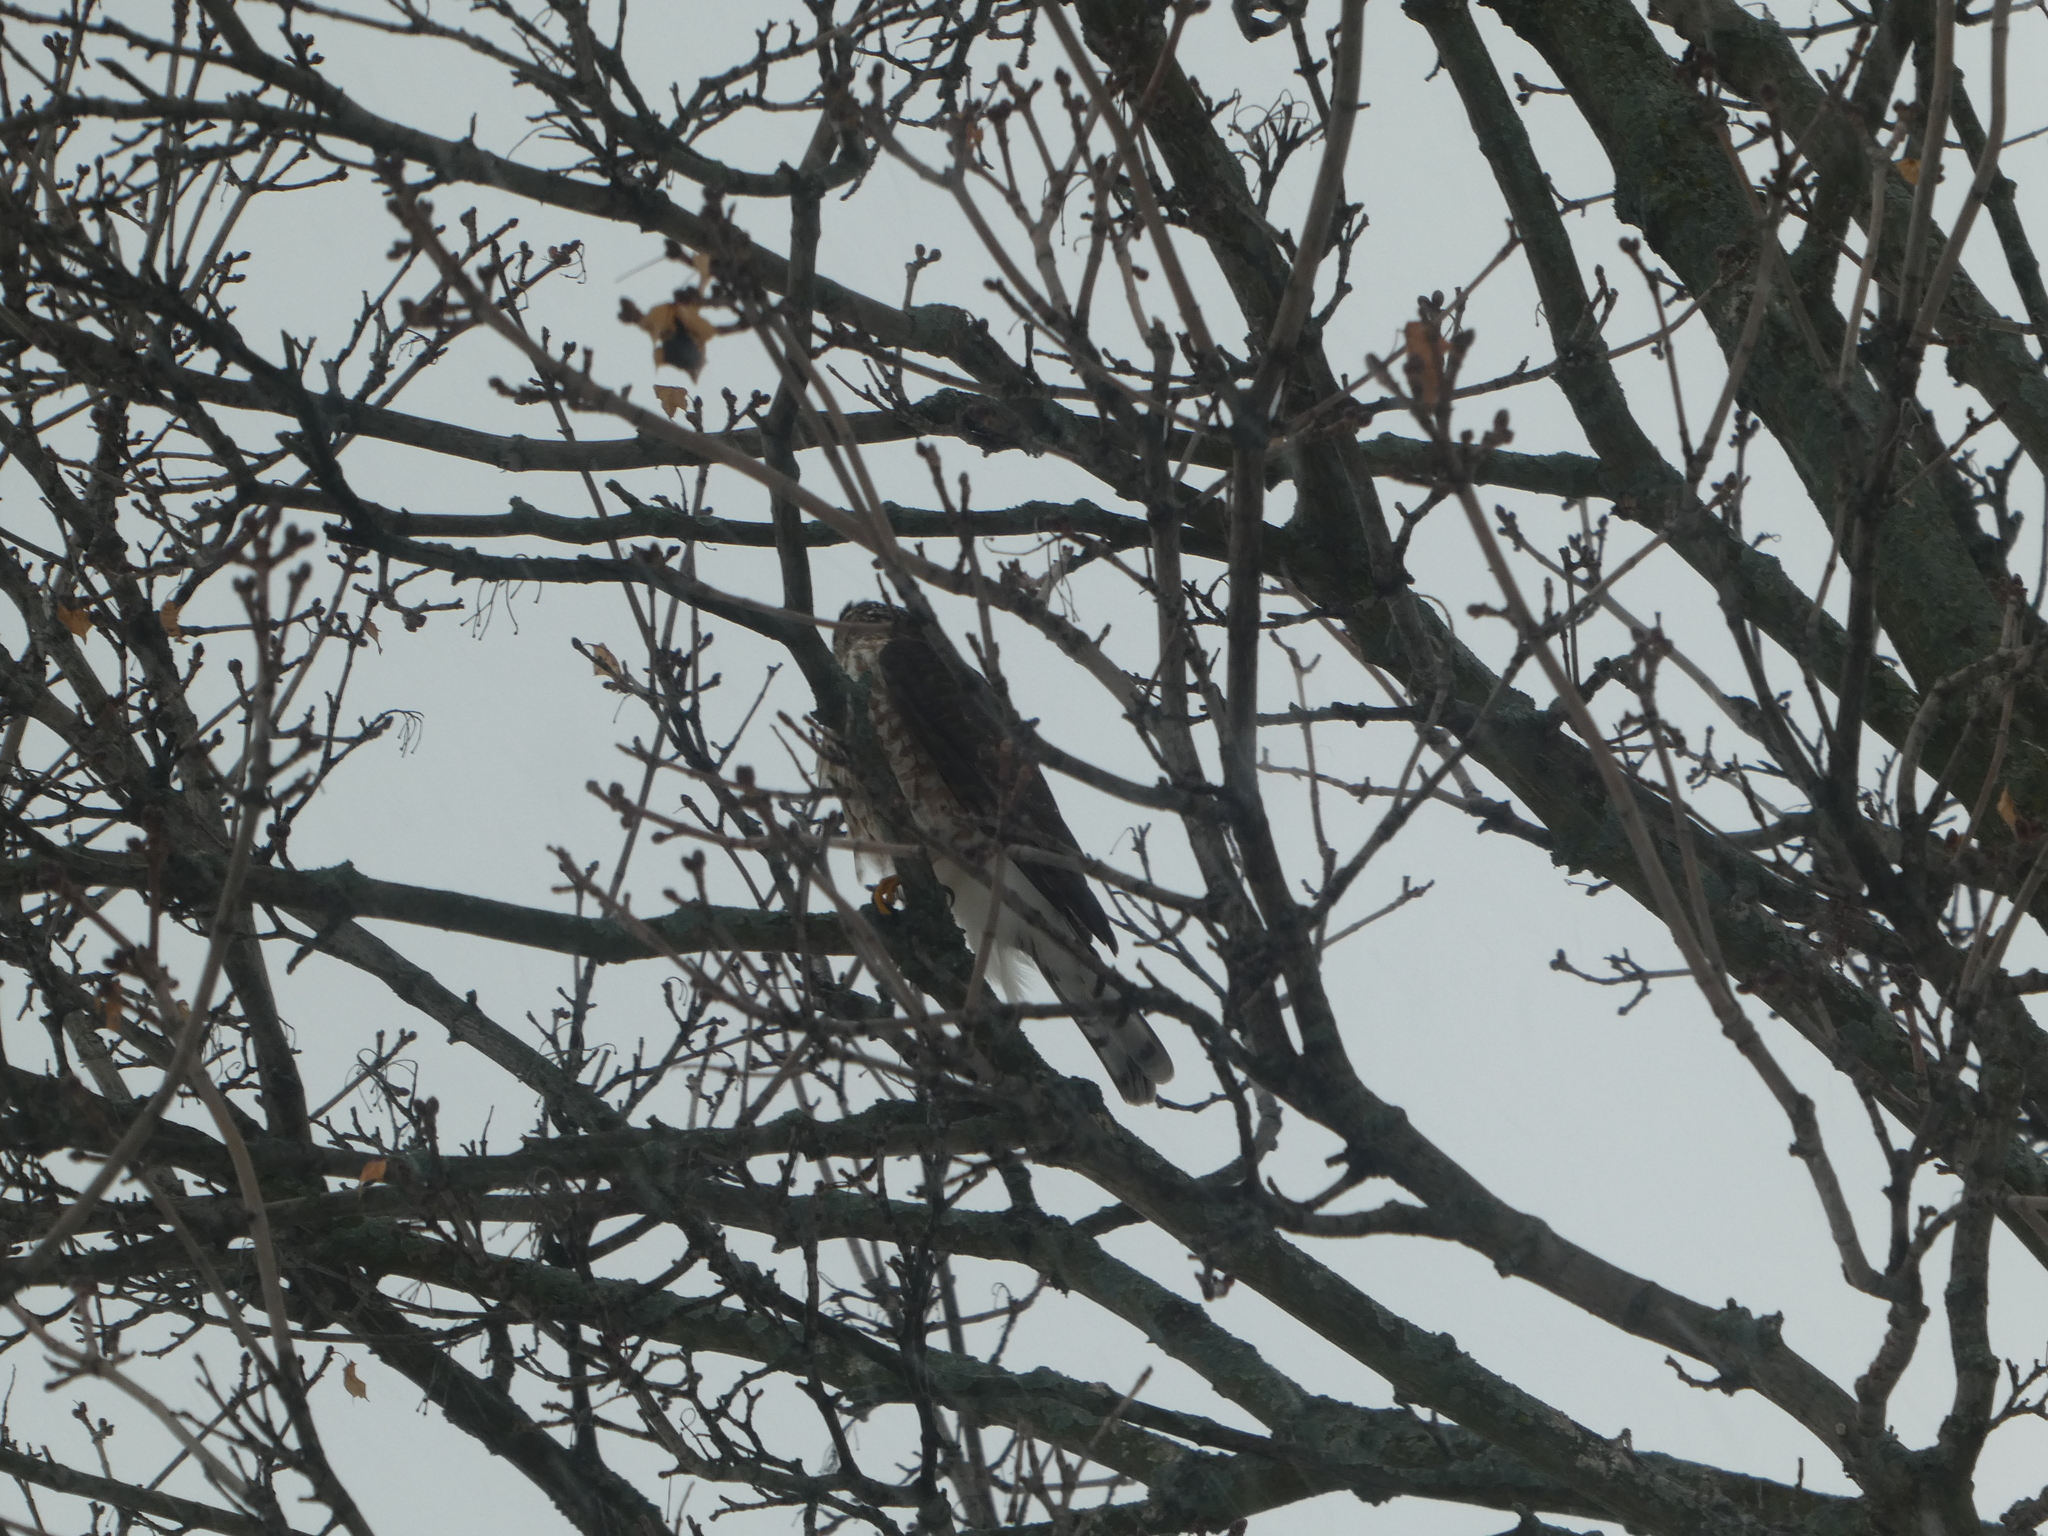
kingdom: Animalia
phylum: Chordata
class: Aves
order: Accipitriformes
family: Accipitridae
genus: Accipiter
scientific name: Accipiter striatus
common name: Sharp-shinned hawk
